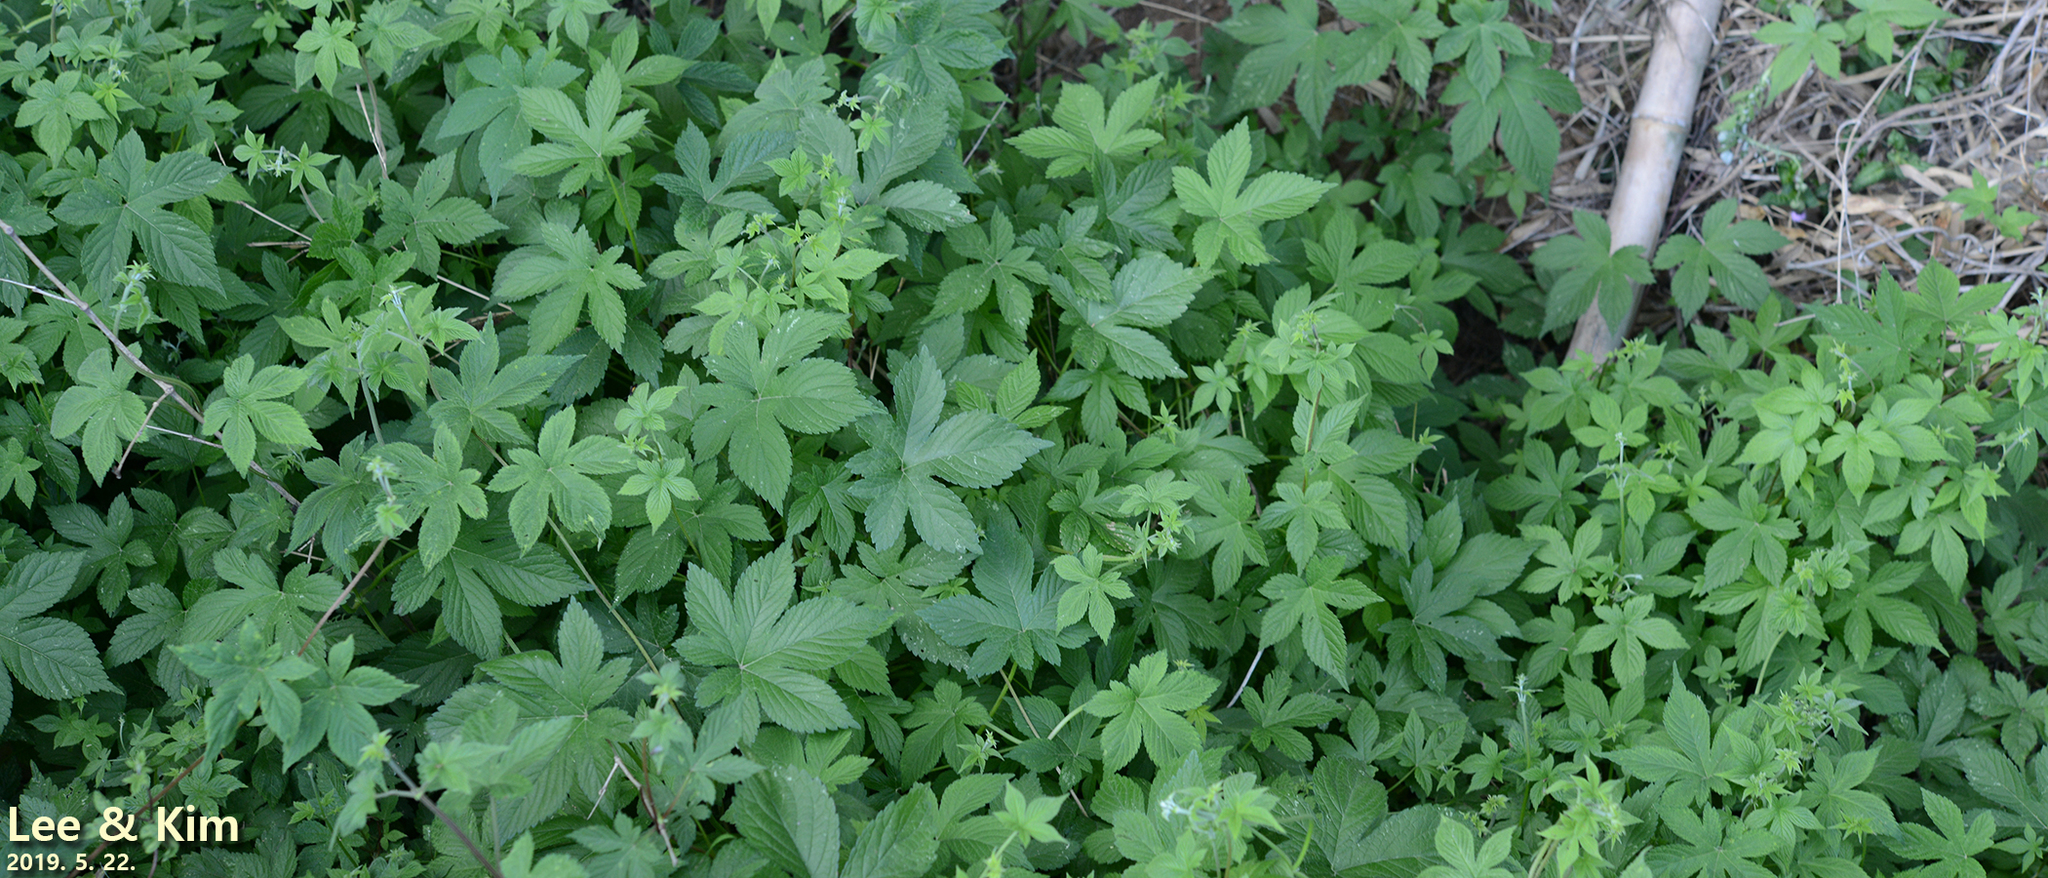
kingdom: Plantae
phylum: Tracheophyta
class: Magnoliopsida
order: Rosales
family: Cannabaceae
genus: Humulus
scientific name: Humulus scandens
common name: Japanese hop
